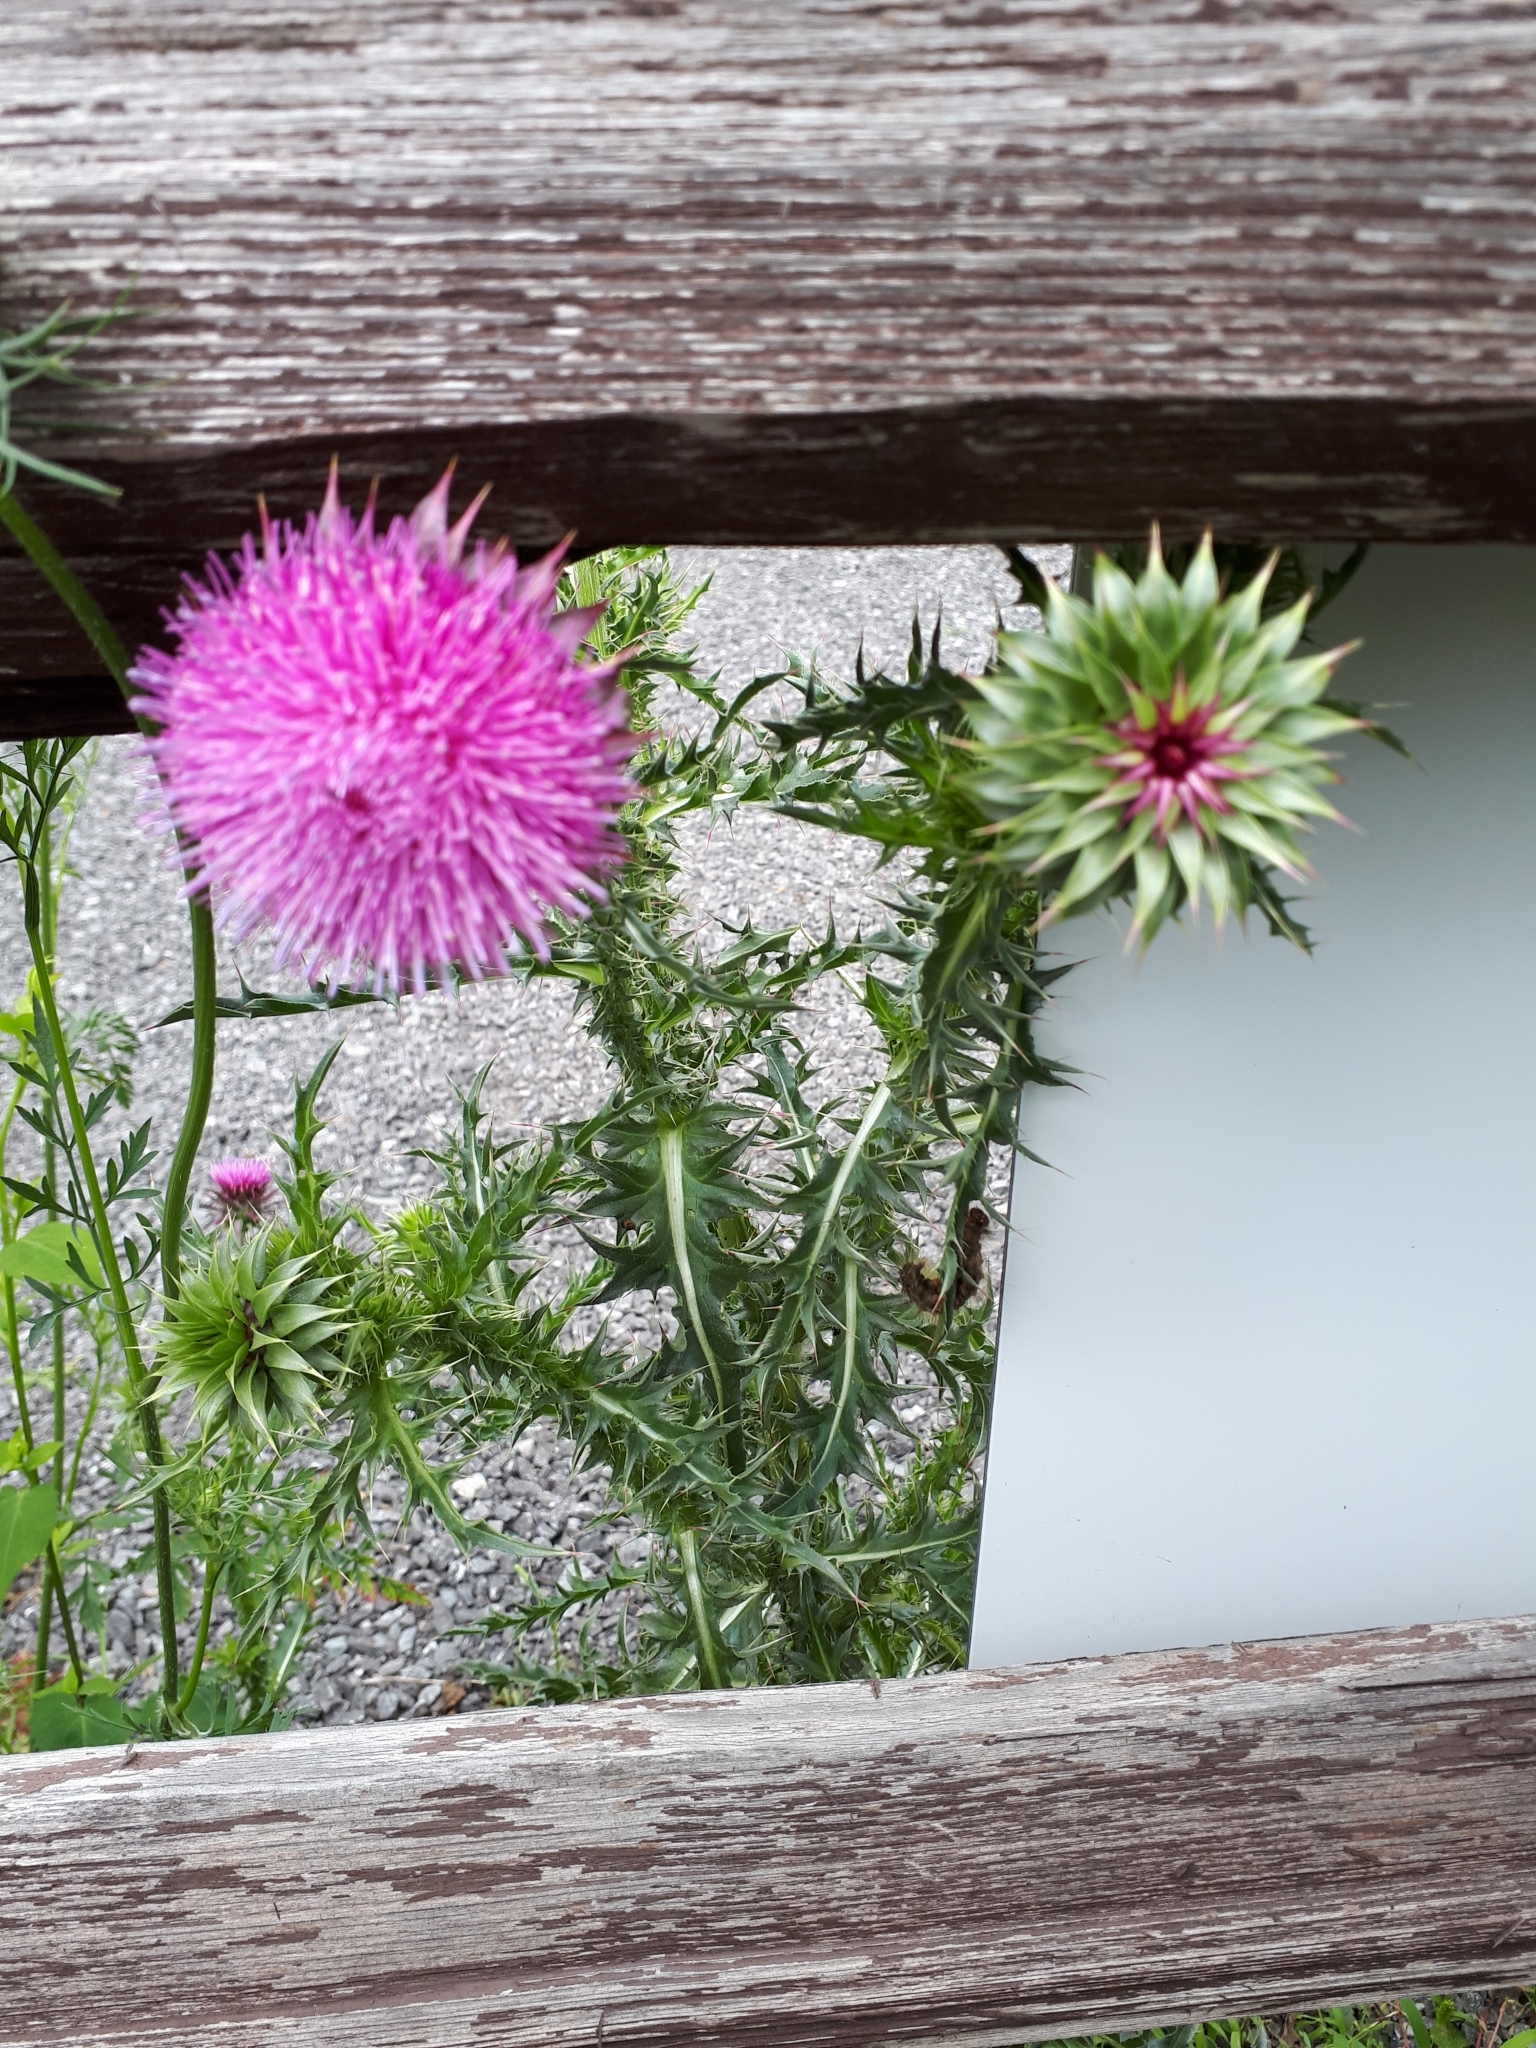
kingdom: Plantae
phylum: Tracheophyta
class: Magnoliopsida
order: Asterales
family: Asteraceae
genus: Carduus
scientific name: Carduus nutans
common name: Musk thistle
